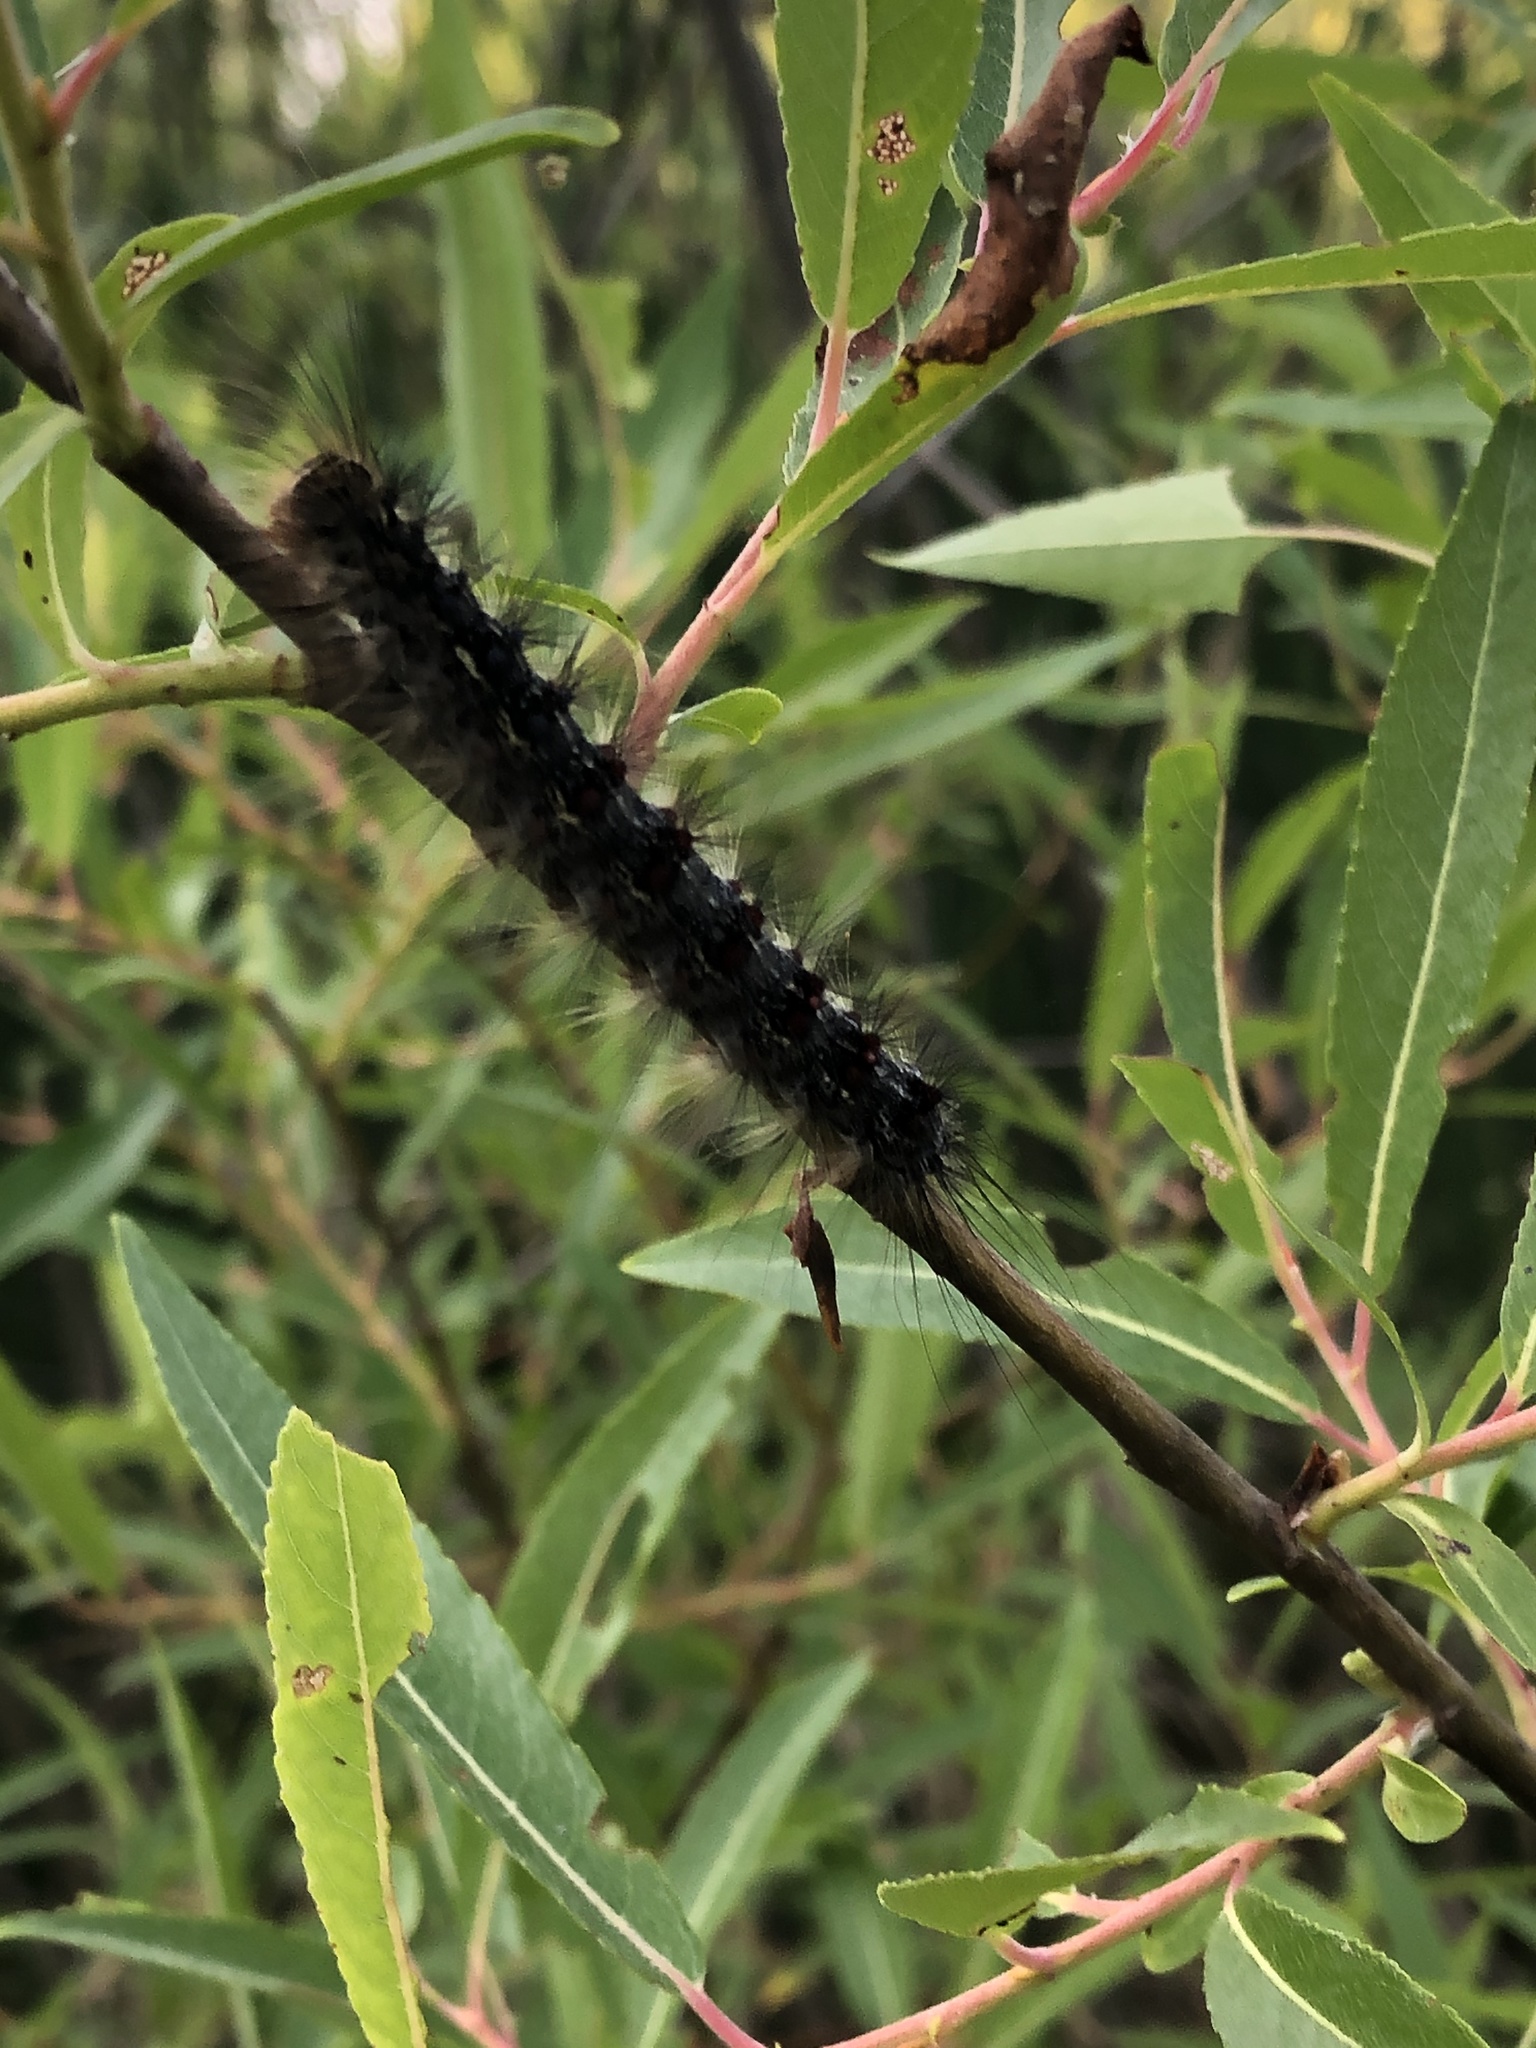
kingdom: Animalia
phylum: Arthropoda
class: Insecta
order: Lepidoptera
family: Erebidae
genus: Lymantria
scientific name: Lymantria dispar
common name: Gypsy moth
